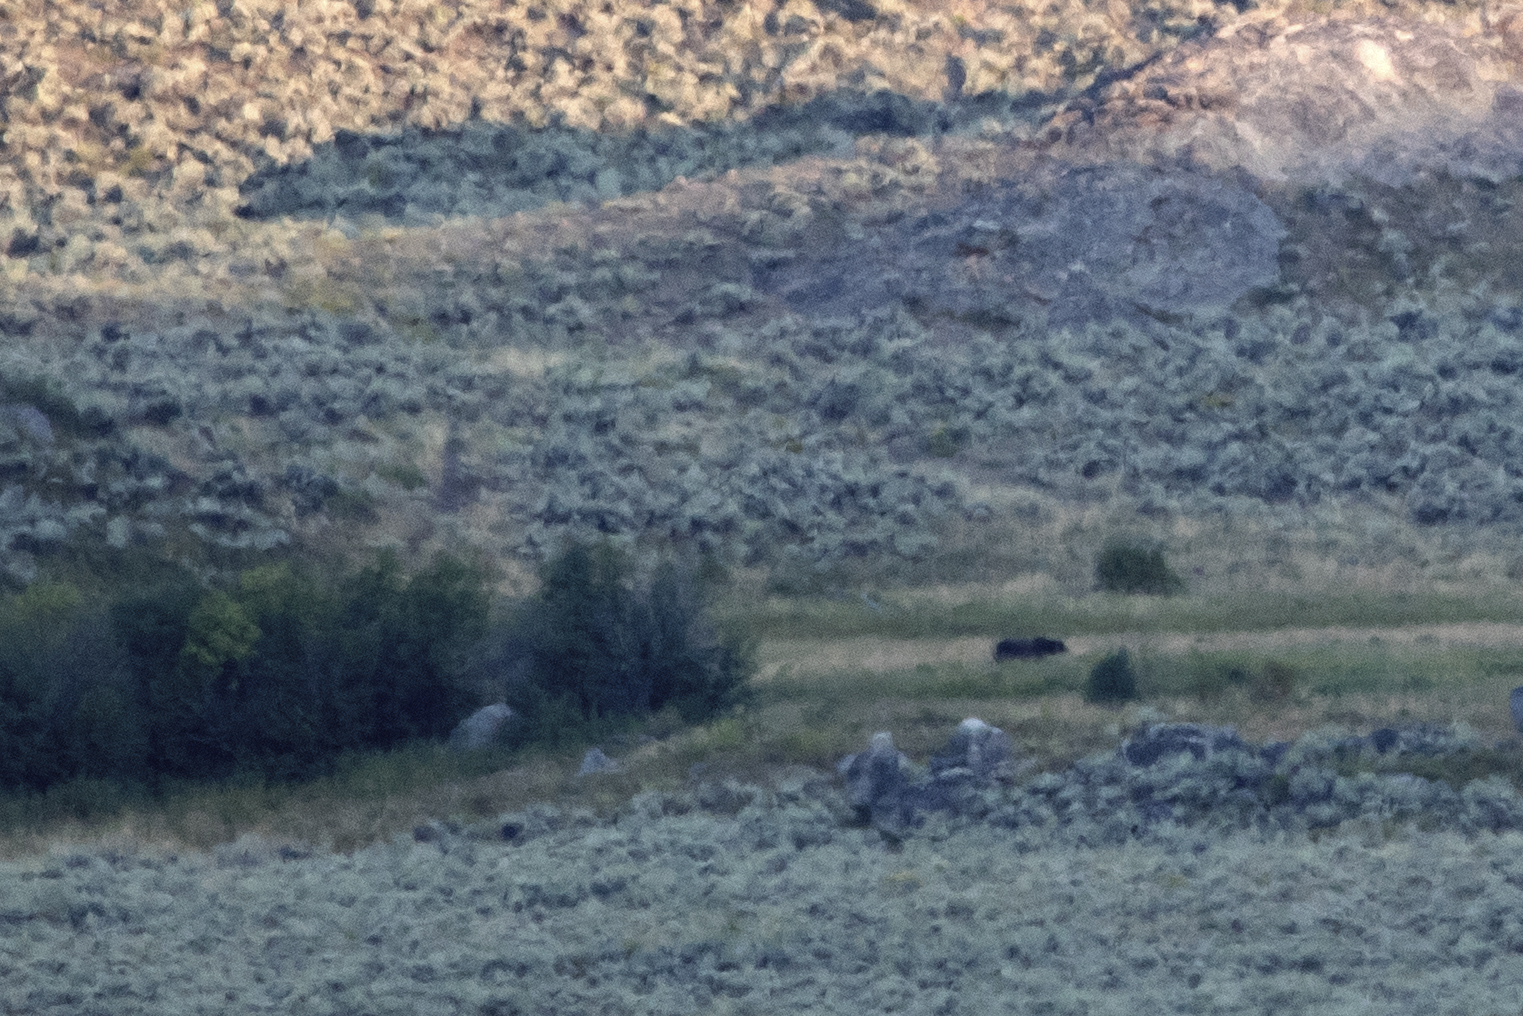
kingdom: Animalia
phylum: Chordata
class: Mammalia
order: Carnivora
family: Ursidae
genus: Ursus
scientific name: Ursus arctos
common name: Brown bear
